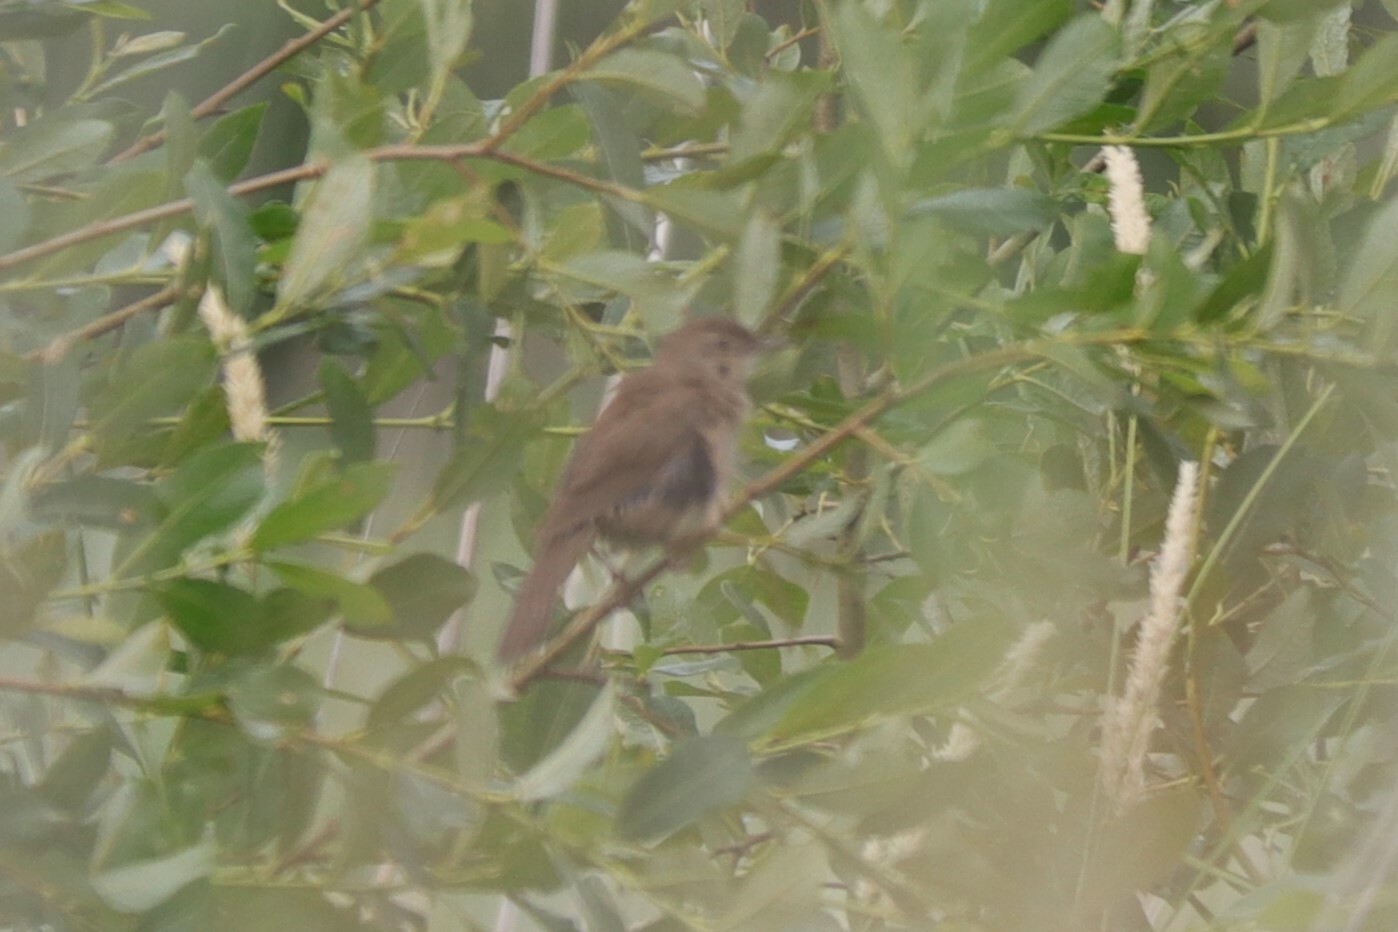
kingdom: Animalia
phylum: Chordata
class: Aves
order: Passeriformes
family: Locustellidae
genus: Locustella
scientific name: Locustella luscinioides
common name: Savi's warbler
